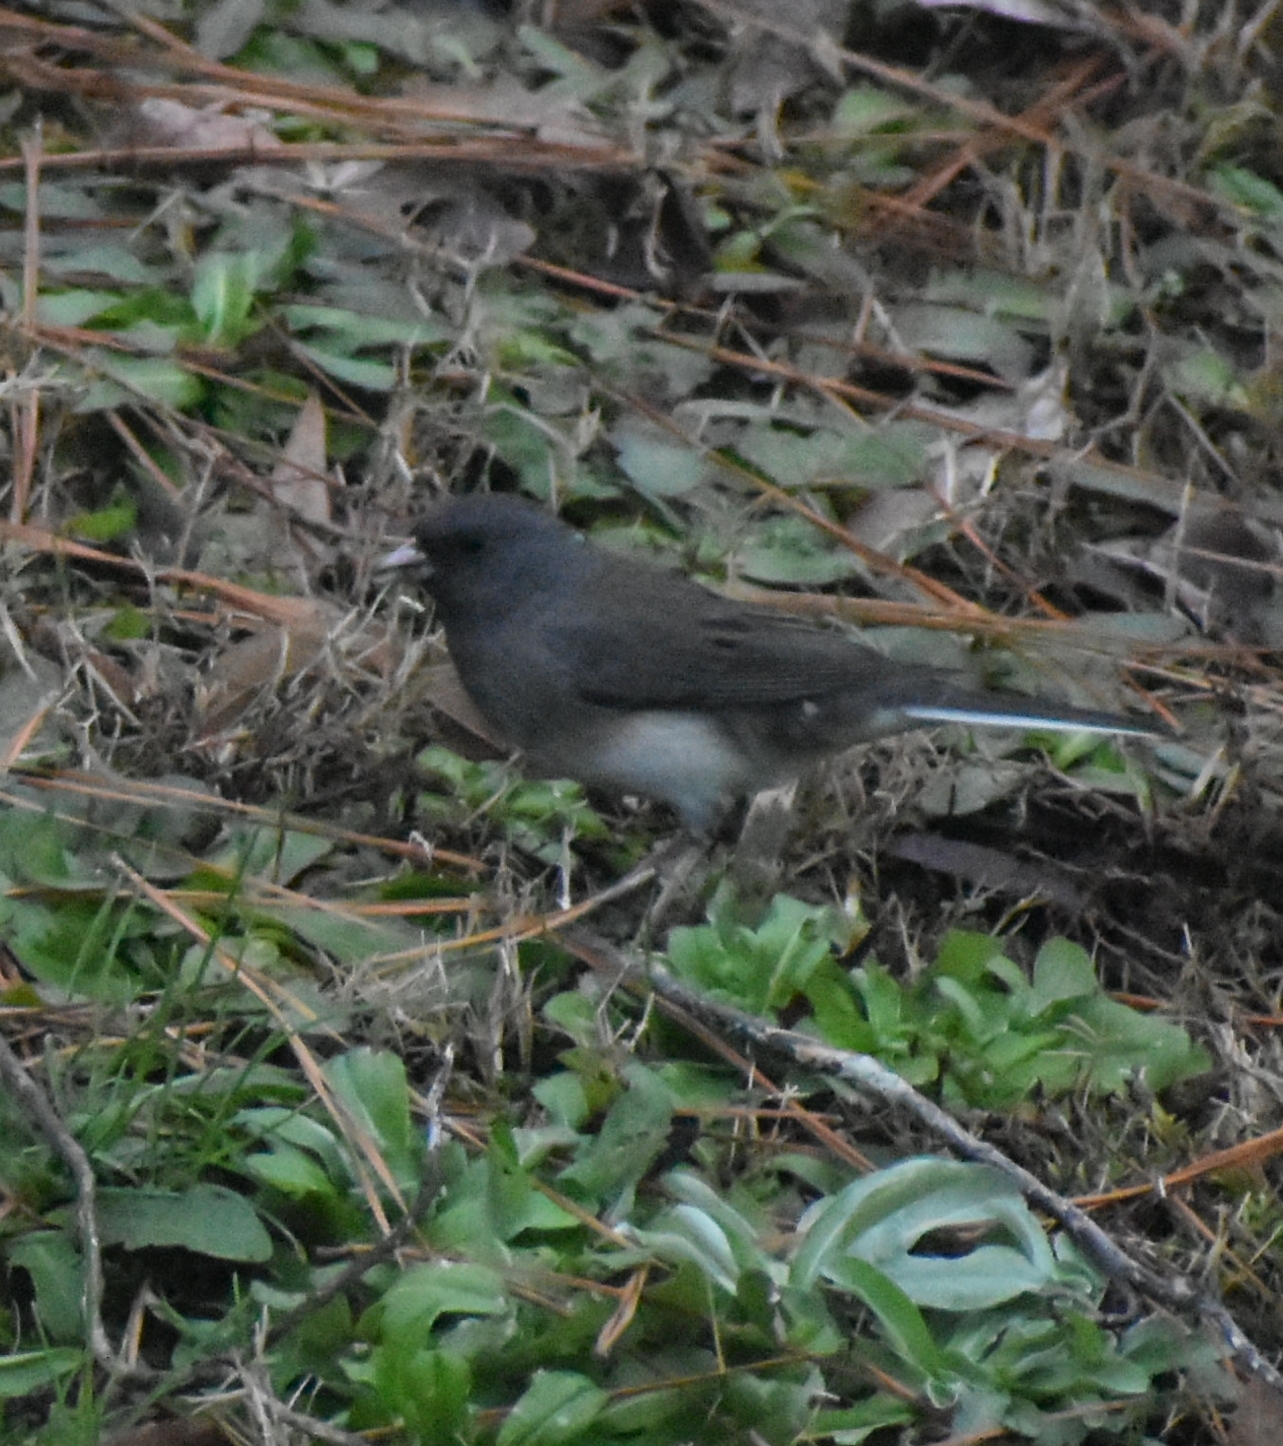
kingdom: Animalia
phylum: Chordata
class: Aves
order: Passeriformes
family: Passerellidae
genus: Junco
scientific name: Junco hyemalis
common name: Dark-eyed junco
